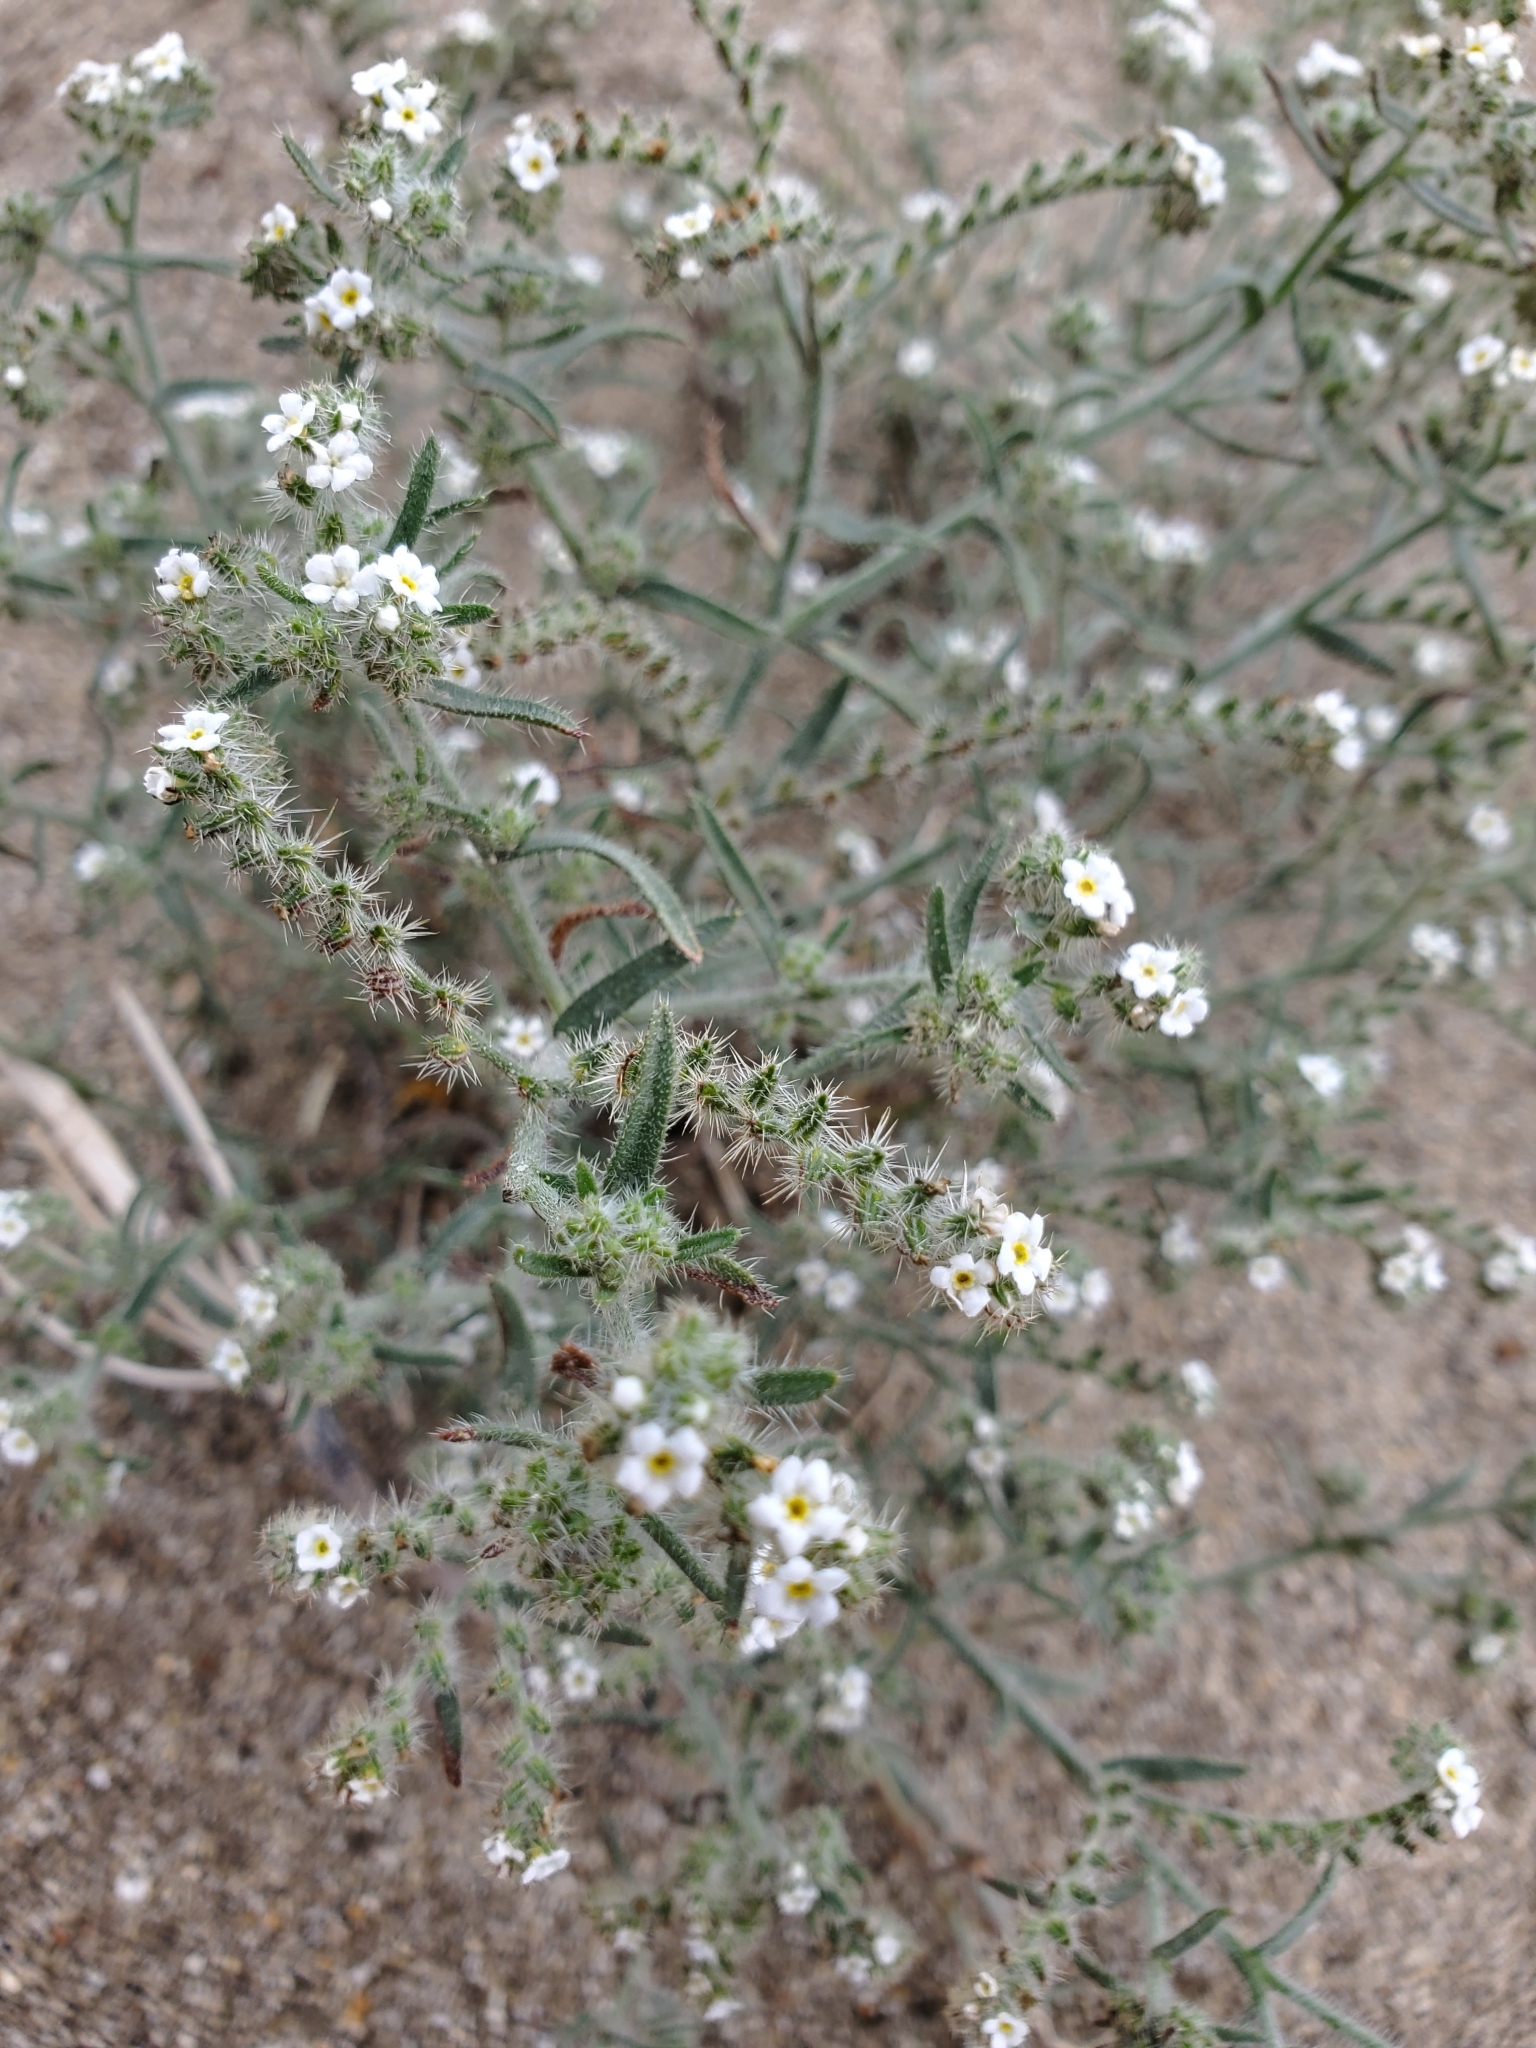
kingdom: Plantae
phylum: Tracheophyta
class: Magnoliopsida
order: Boraginales
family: Boraginaceae
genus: Johnstonella
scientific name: Johnstonella angustifolia
